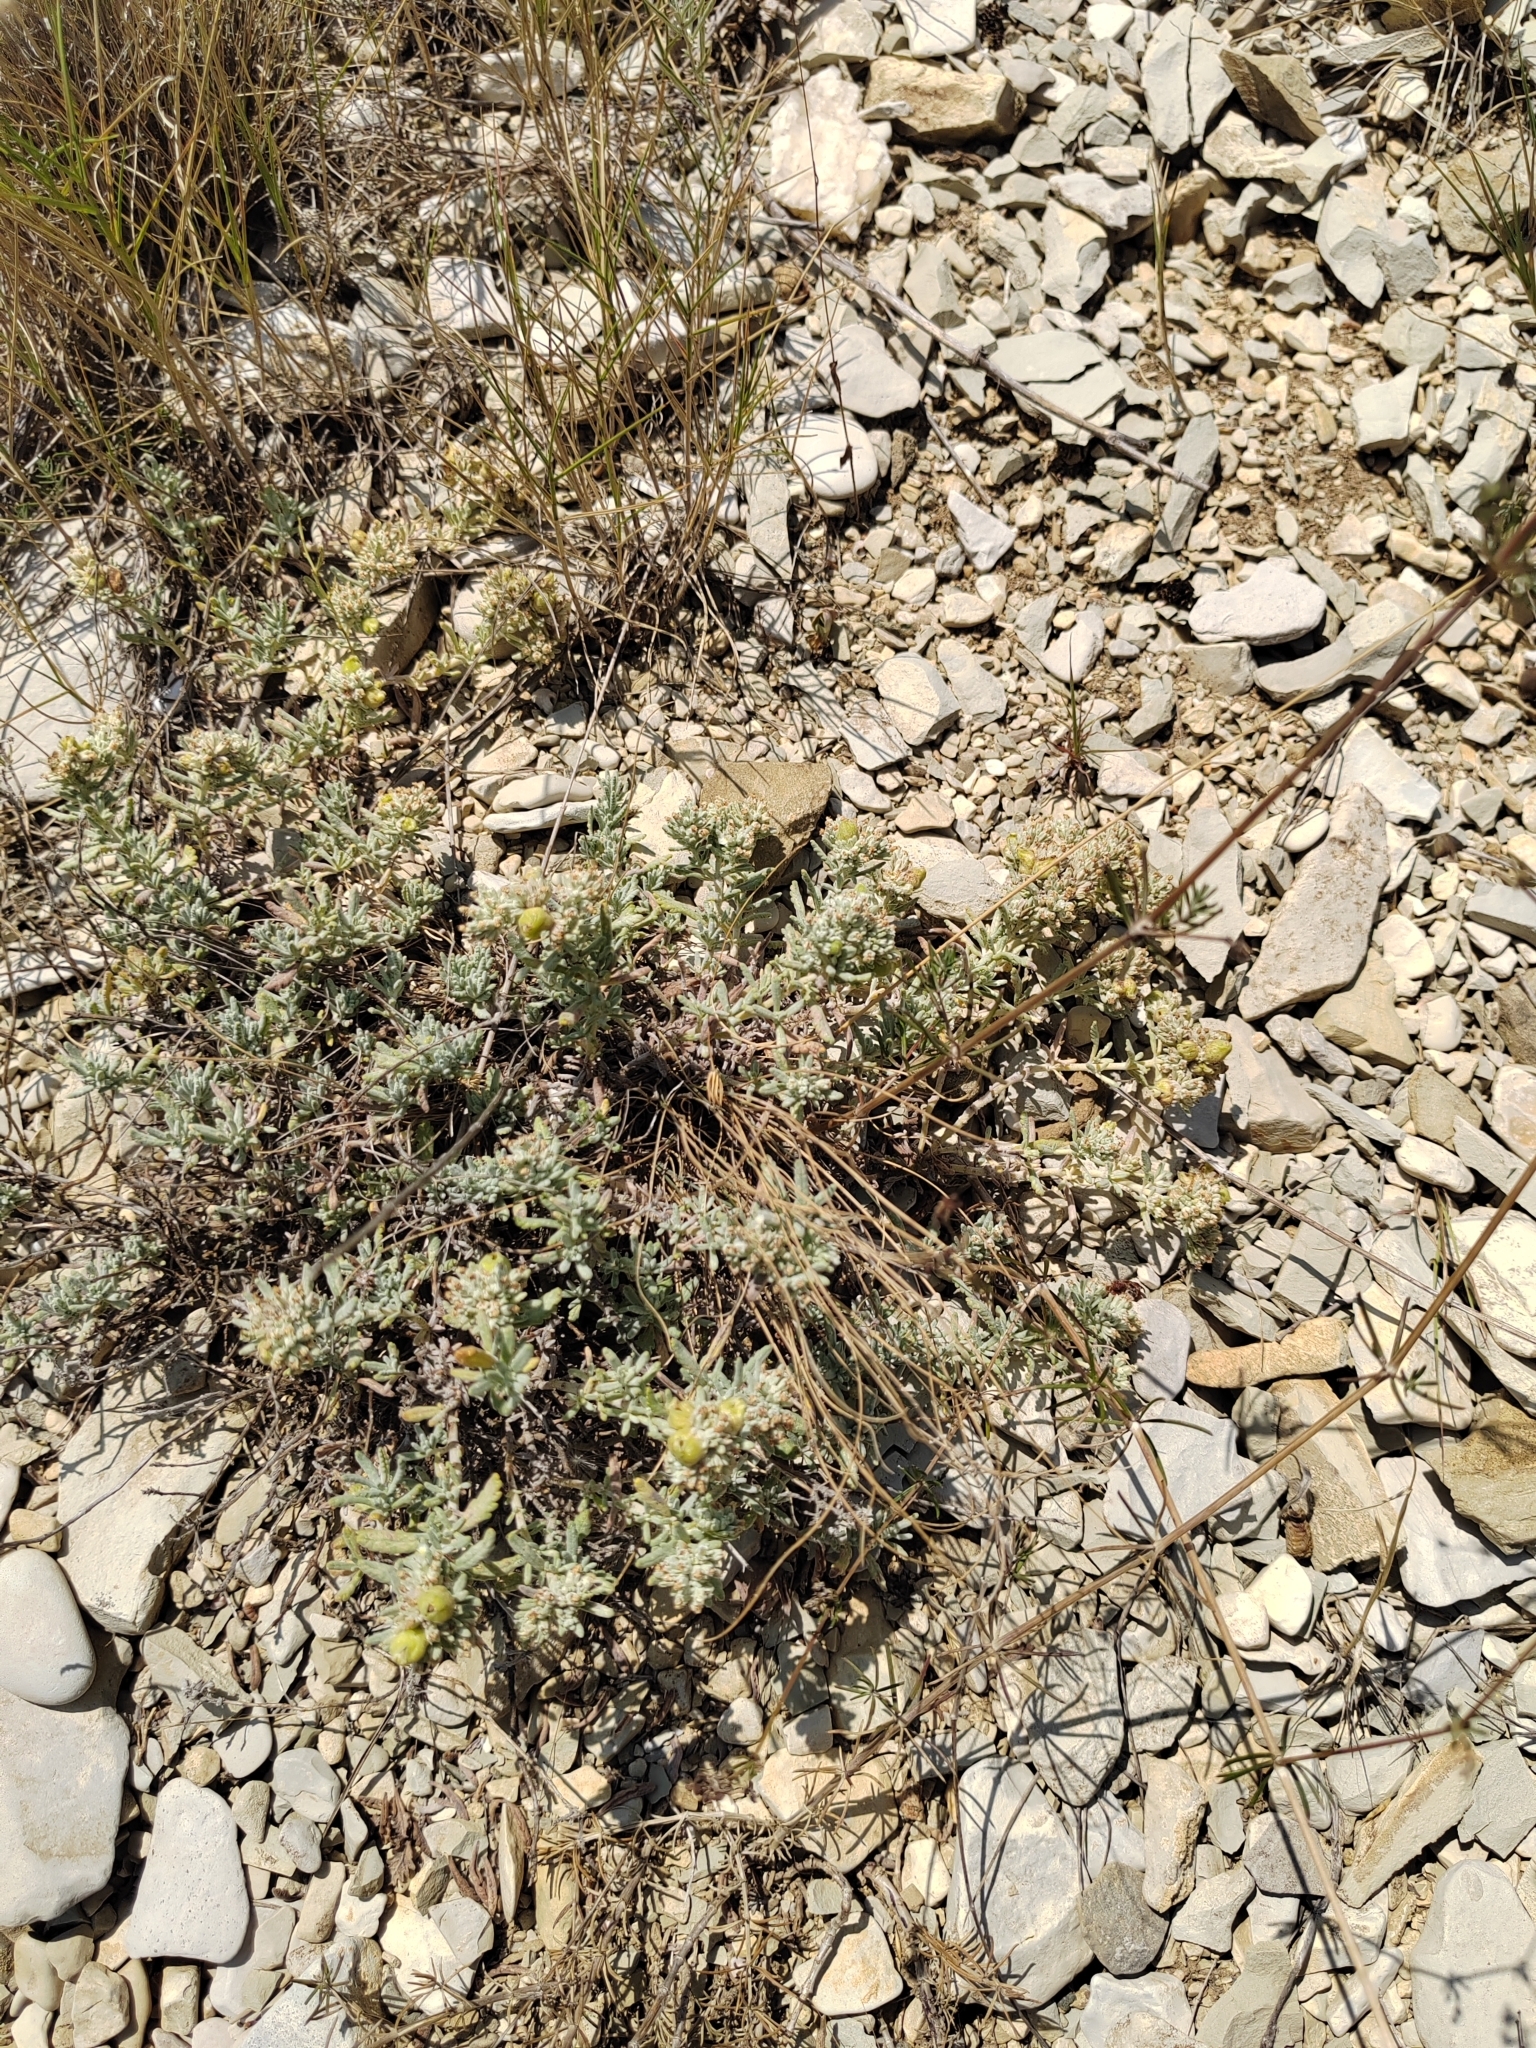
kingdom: Plantae
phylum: Tracheophyta
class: Magnoliopsida
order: Lamiales
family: Lamiaceae
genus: Teucrium
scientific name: Teucrium polium
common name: Poley
